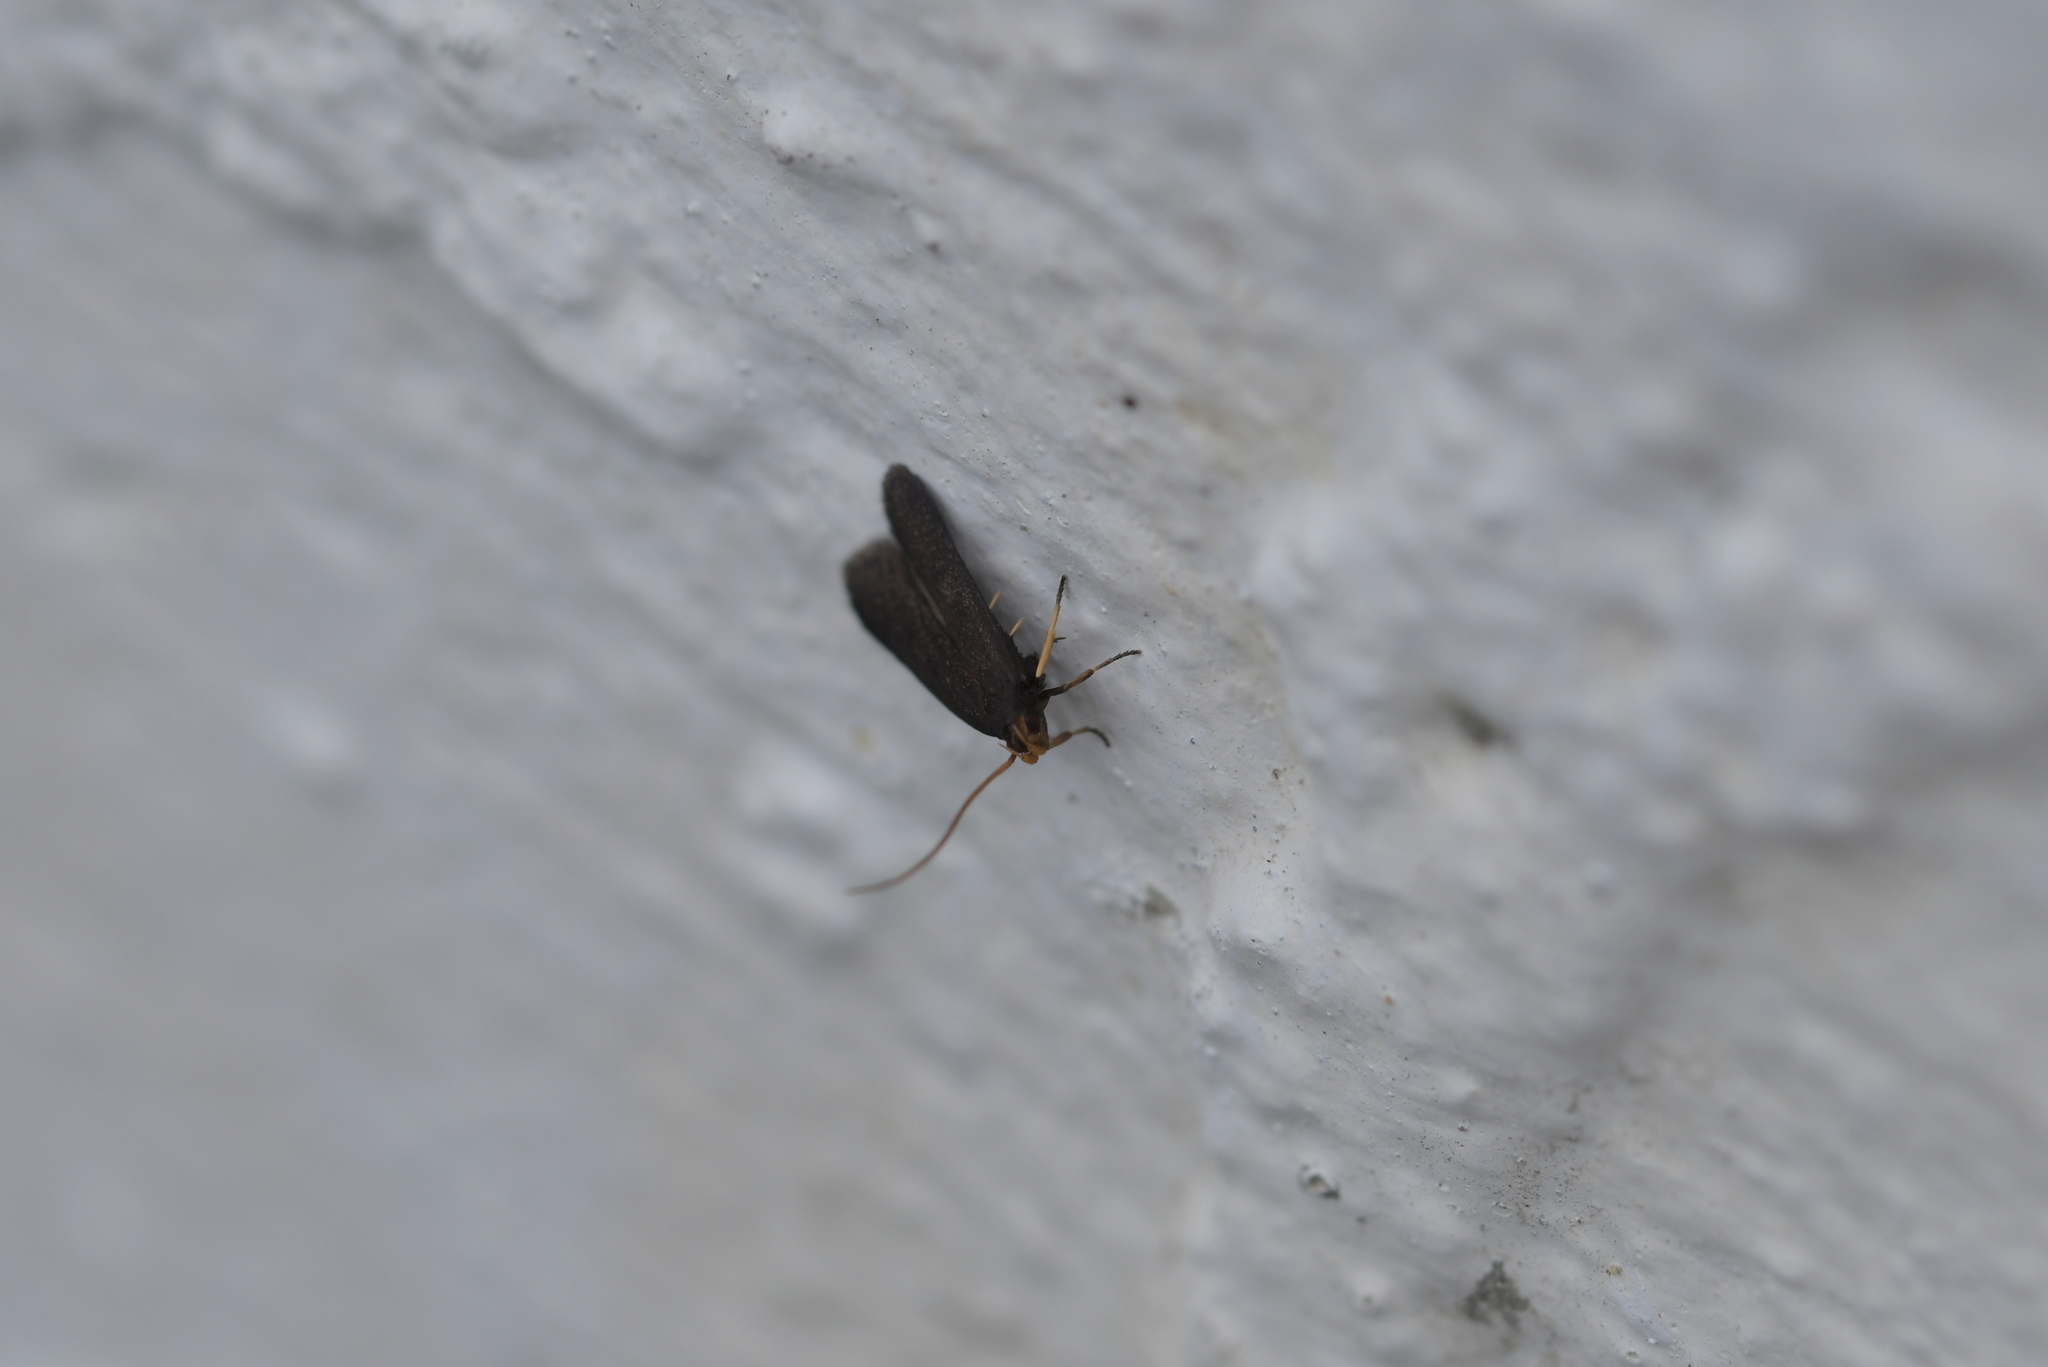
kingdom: Animalia
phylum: Arthropoda
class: Insecta
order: Lepidoptera
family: Lecithoceridae
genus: Lecithocera
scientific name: Lecithocera micromela
